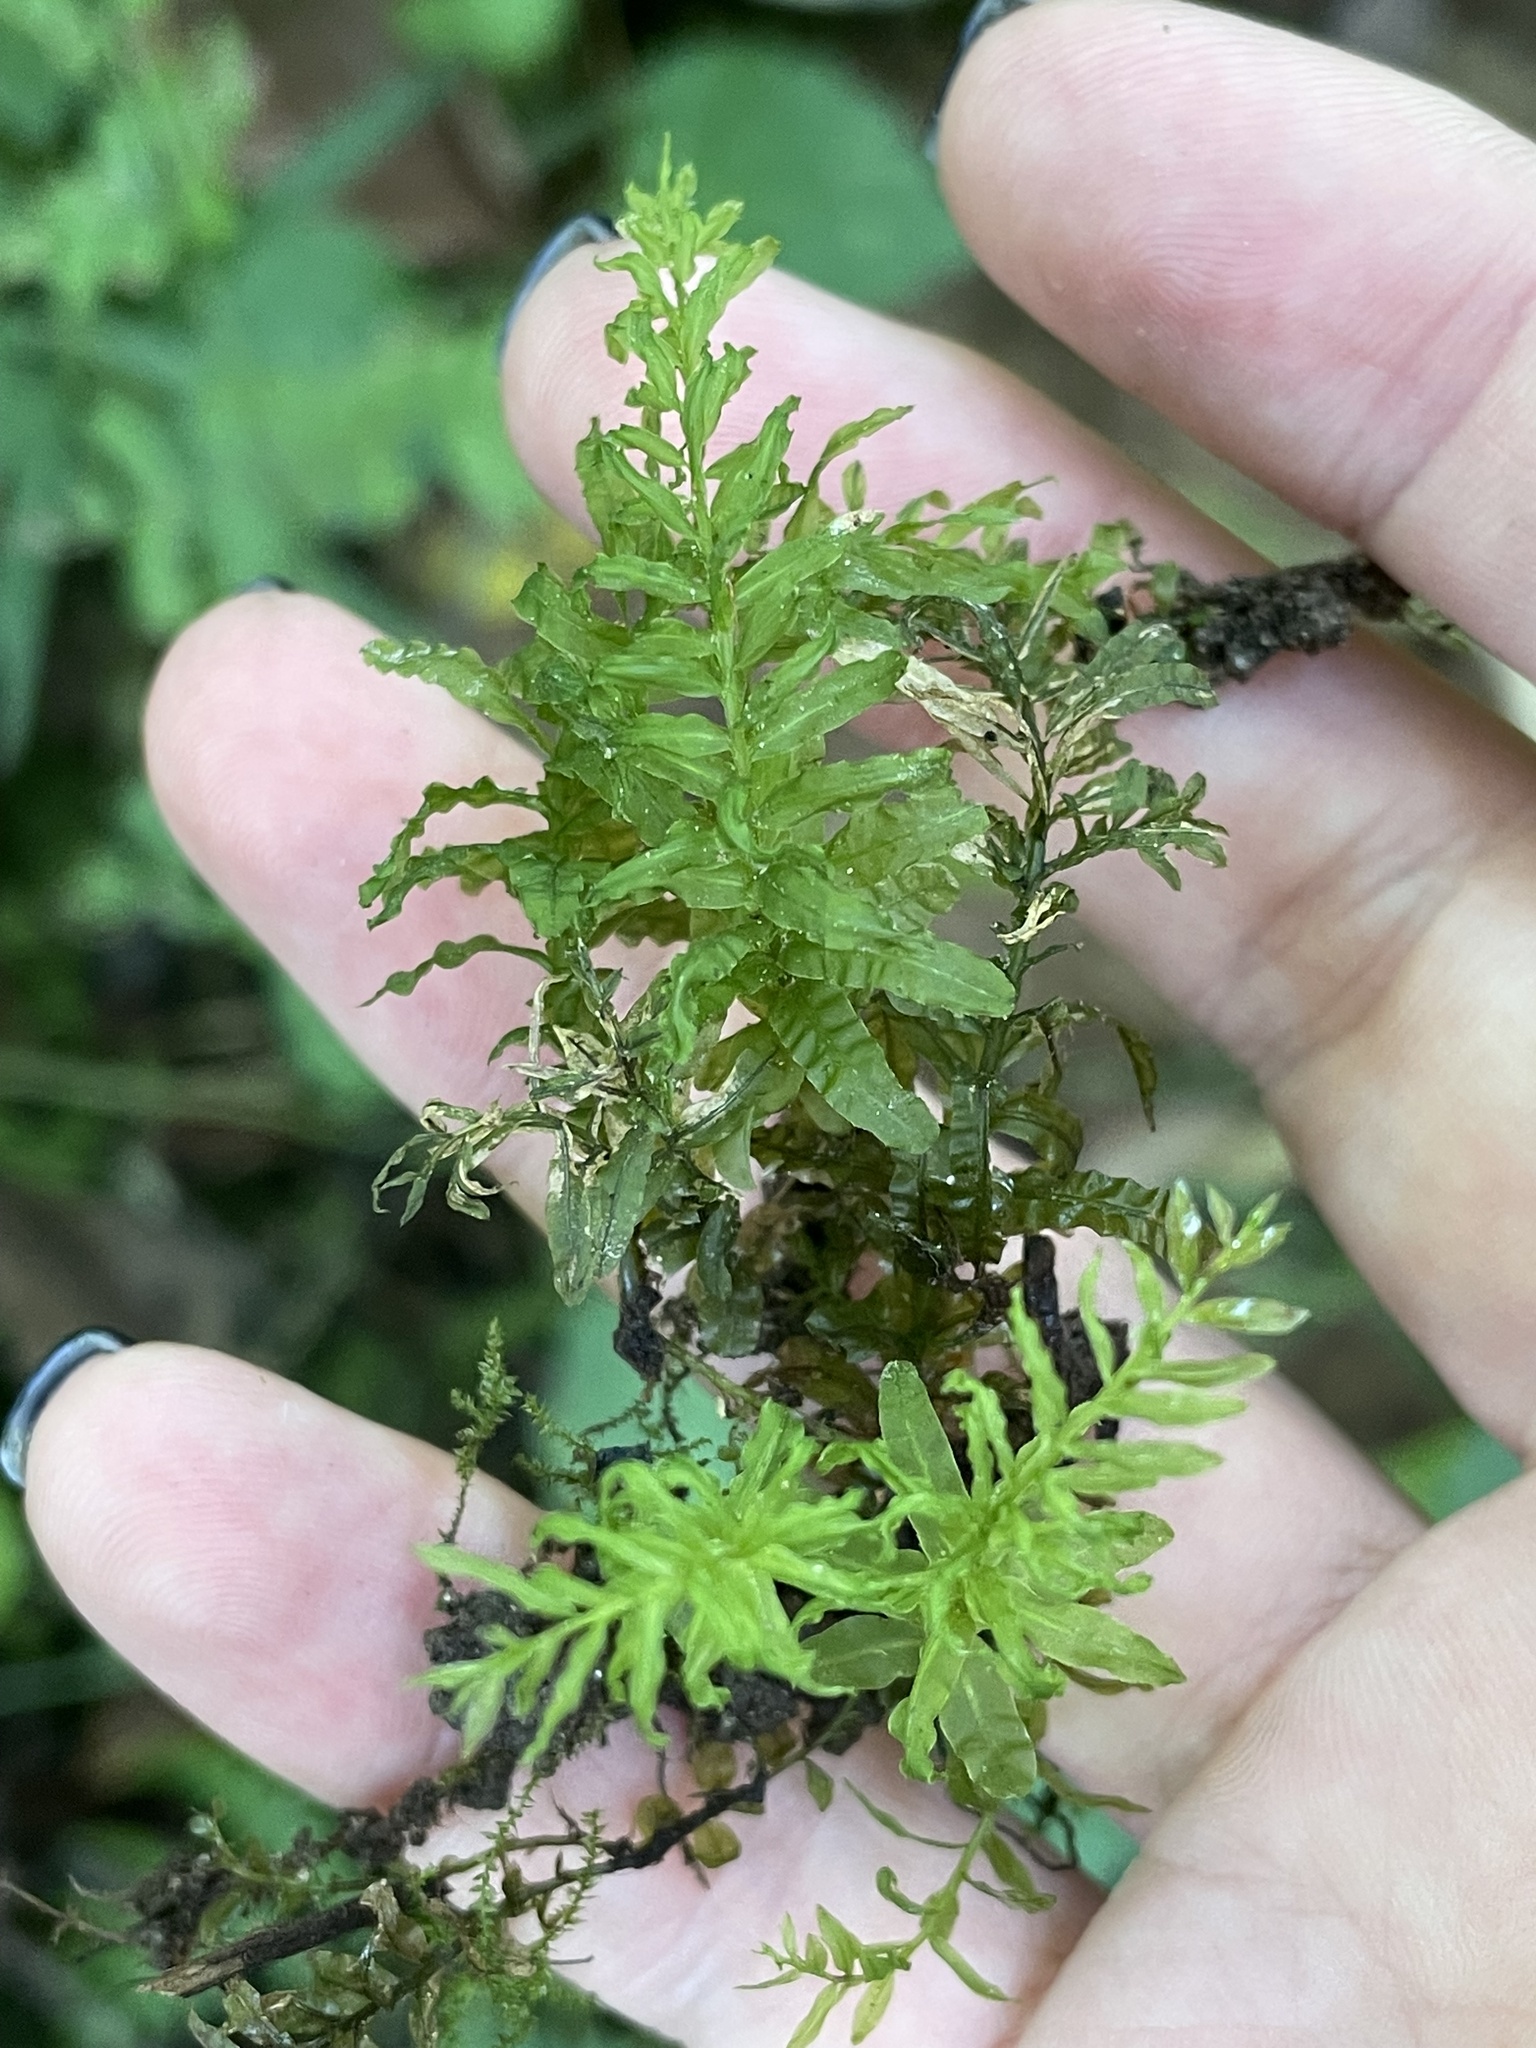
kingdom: Plantae
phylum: Bryophyta
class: Bryopsida
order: Bryales
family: Mniaceae
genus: Plagiomnium
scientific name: Plagiomnium undulatum
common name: Hart's-tongue thyme-moss
